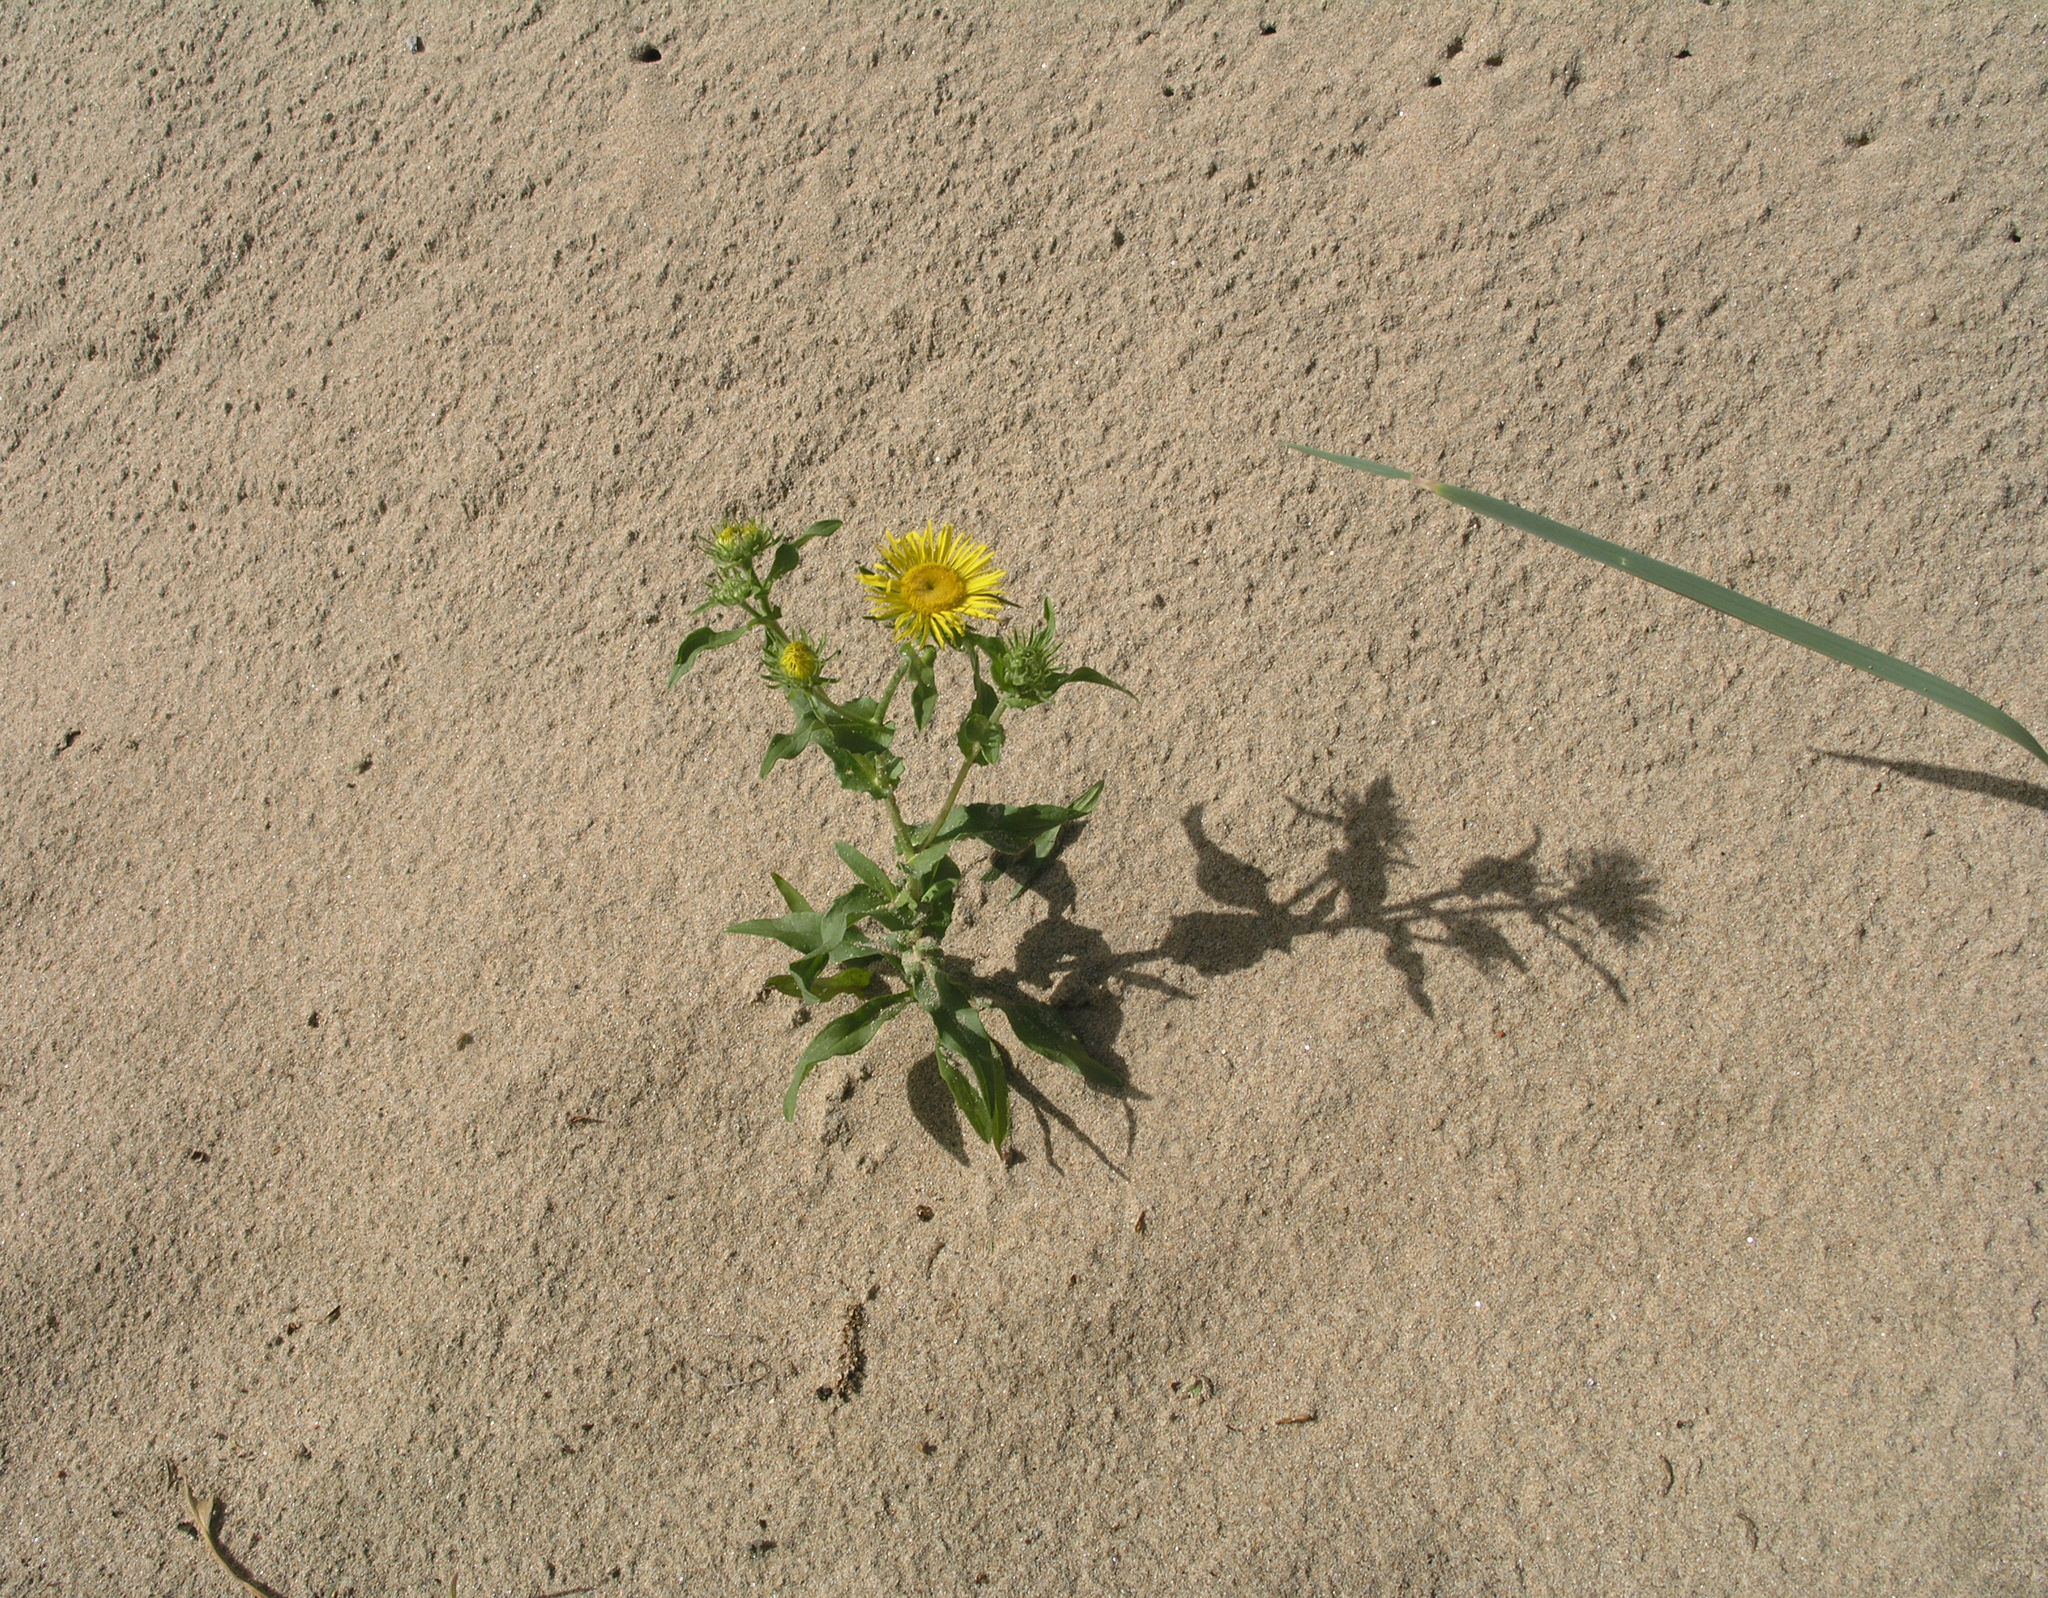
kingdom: Plantae
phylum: Tracheophyta
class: Magnoliopsida
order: Asterales
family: Asteraceae
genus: Pentanema
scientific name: Pentanema britannicum
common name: British elecampane
